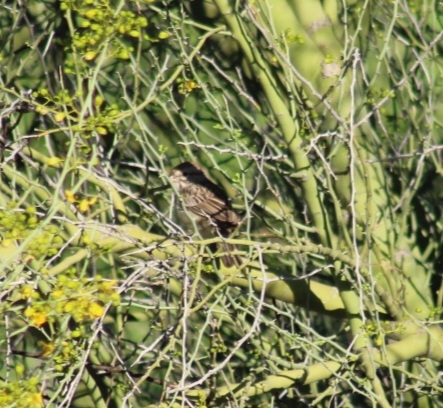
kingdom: Animalia
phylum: Chordata
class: Aves
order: Passeriformes
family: Passerellidae
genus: Peucaea
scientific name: Peucaea carpalis
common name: Rufous-winged sparrow
